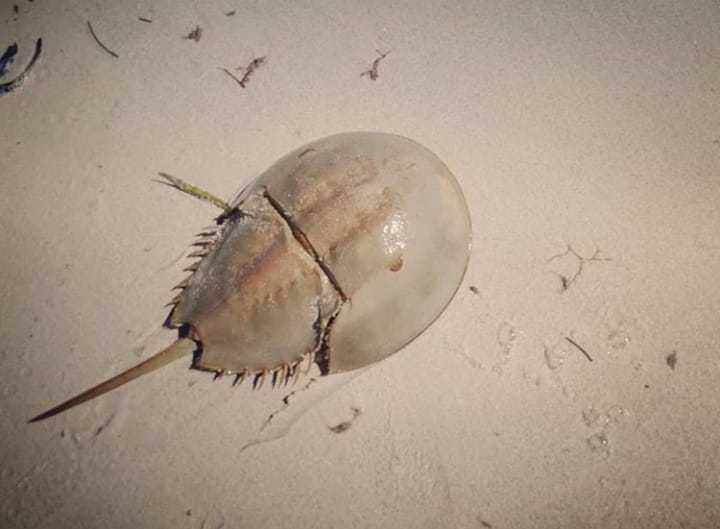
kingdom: Animalia
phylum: Arthropoda
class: Merostomata
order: Xiphosurida
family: Limulidae
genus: Limulus
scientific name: Limulus polyphemus
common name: Horseshoe crab
